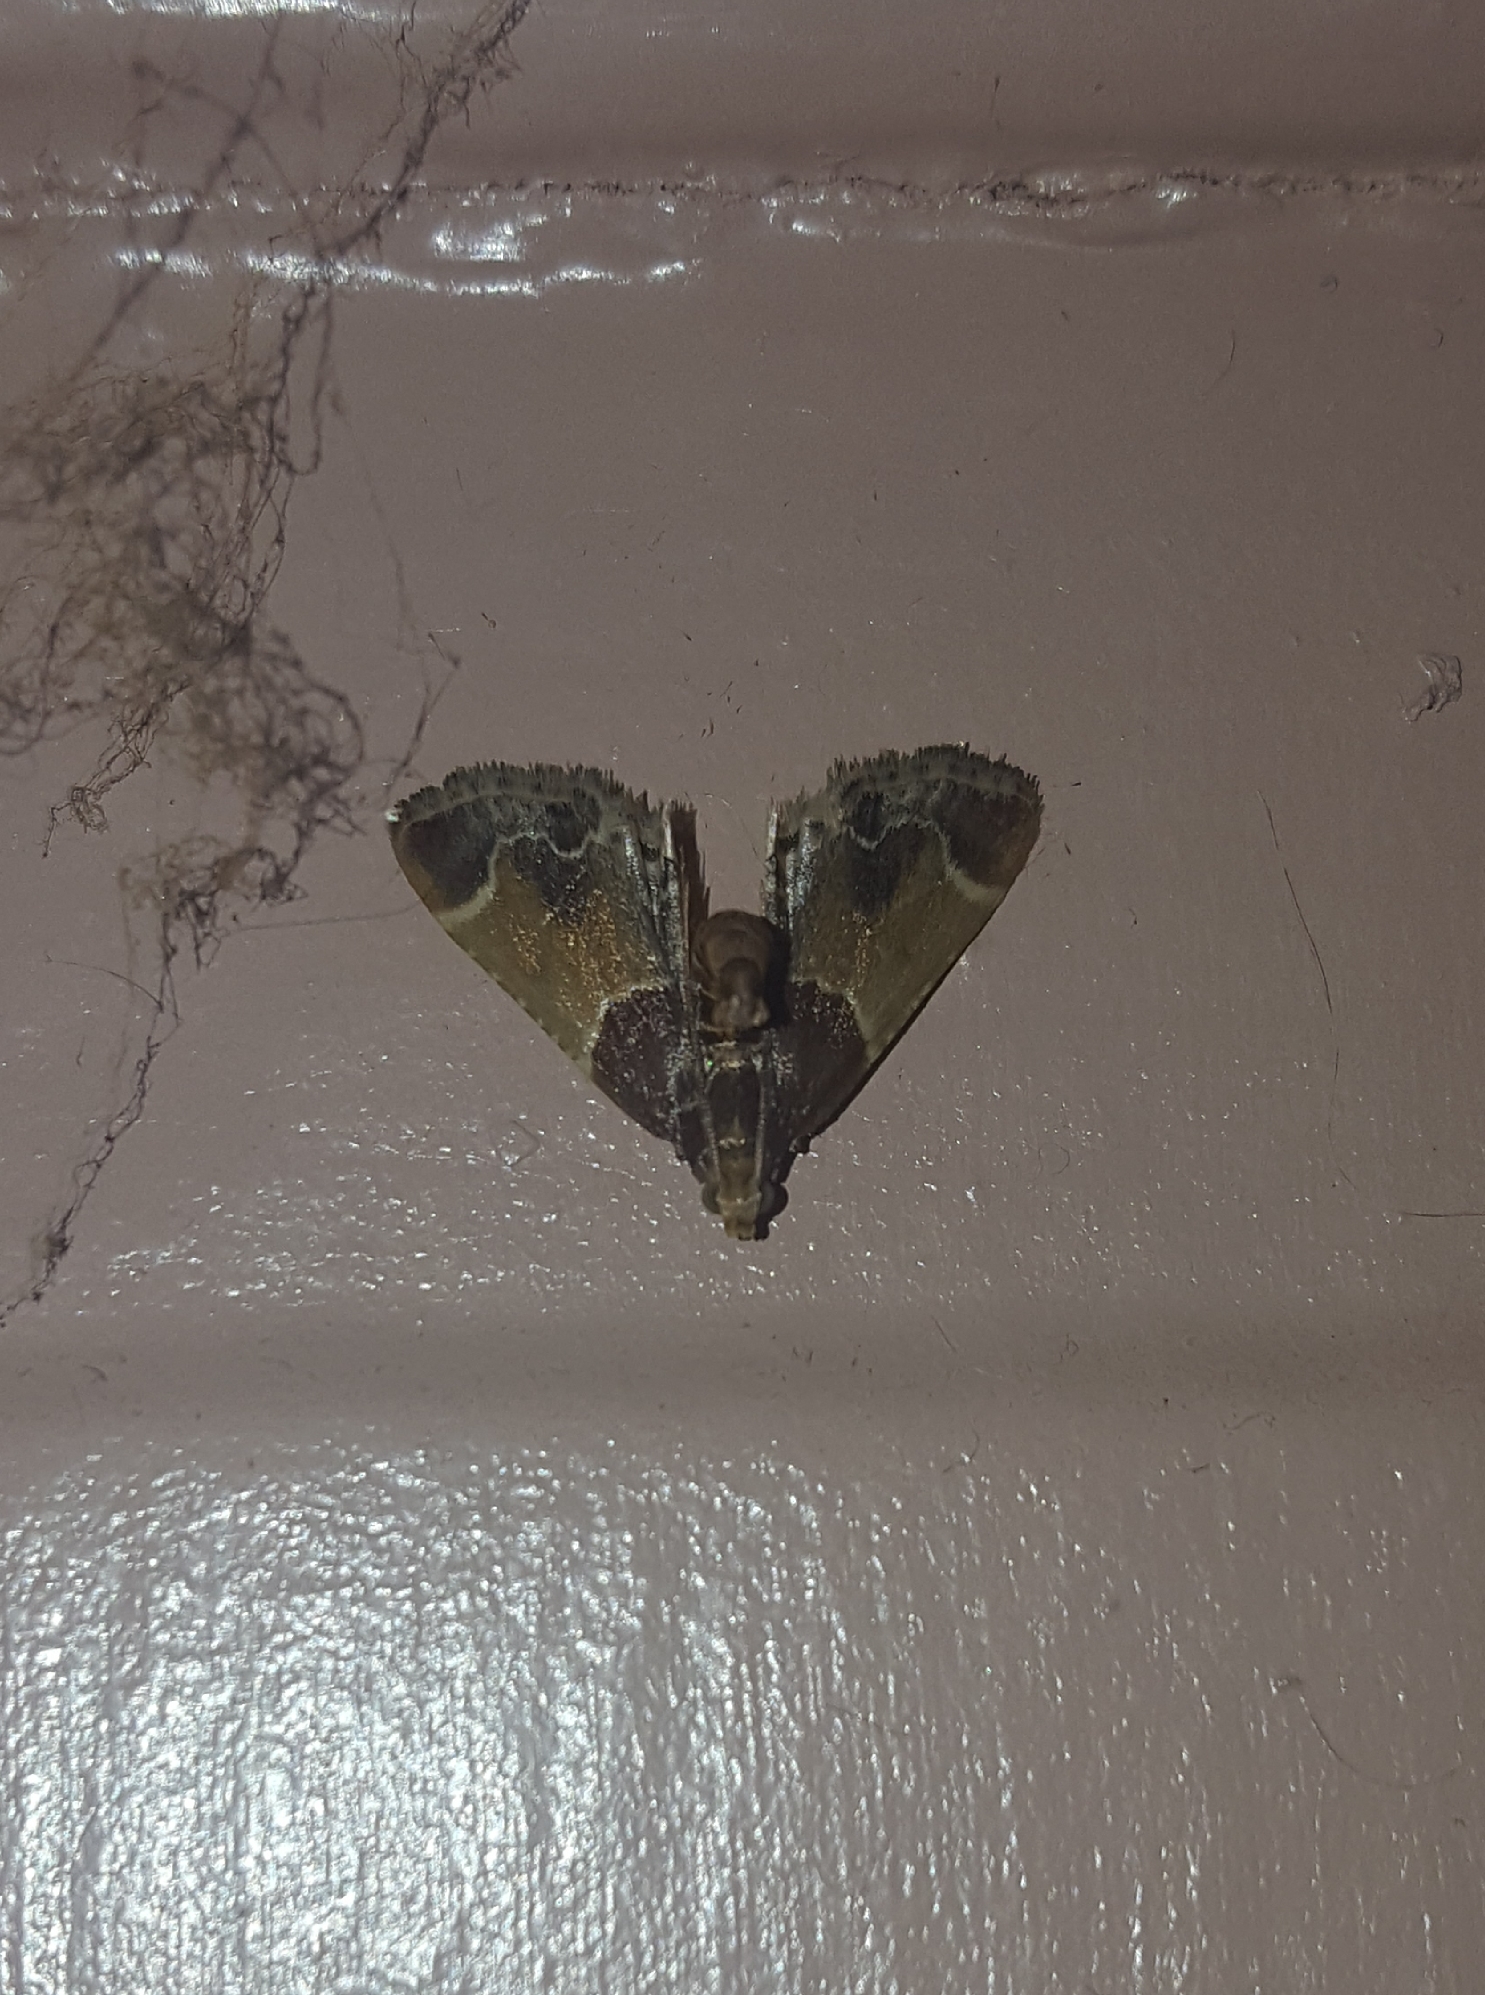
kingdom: Animalia
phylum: Arthropoda
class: Insecta
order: Lepidoptera
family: Pyralidae
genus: Pyralis
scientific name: Pyralis farinalis
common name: Meal moth
